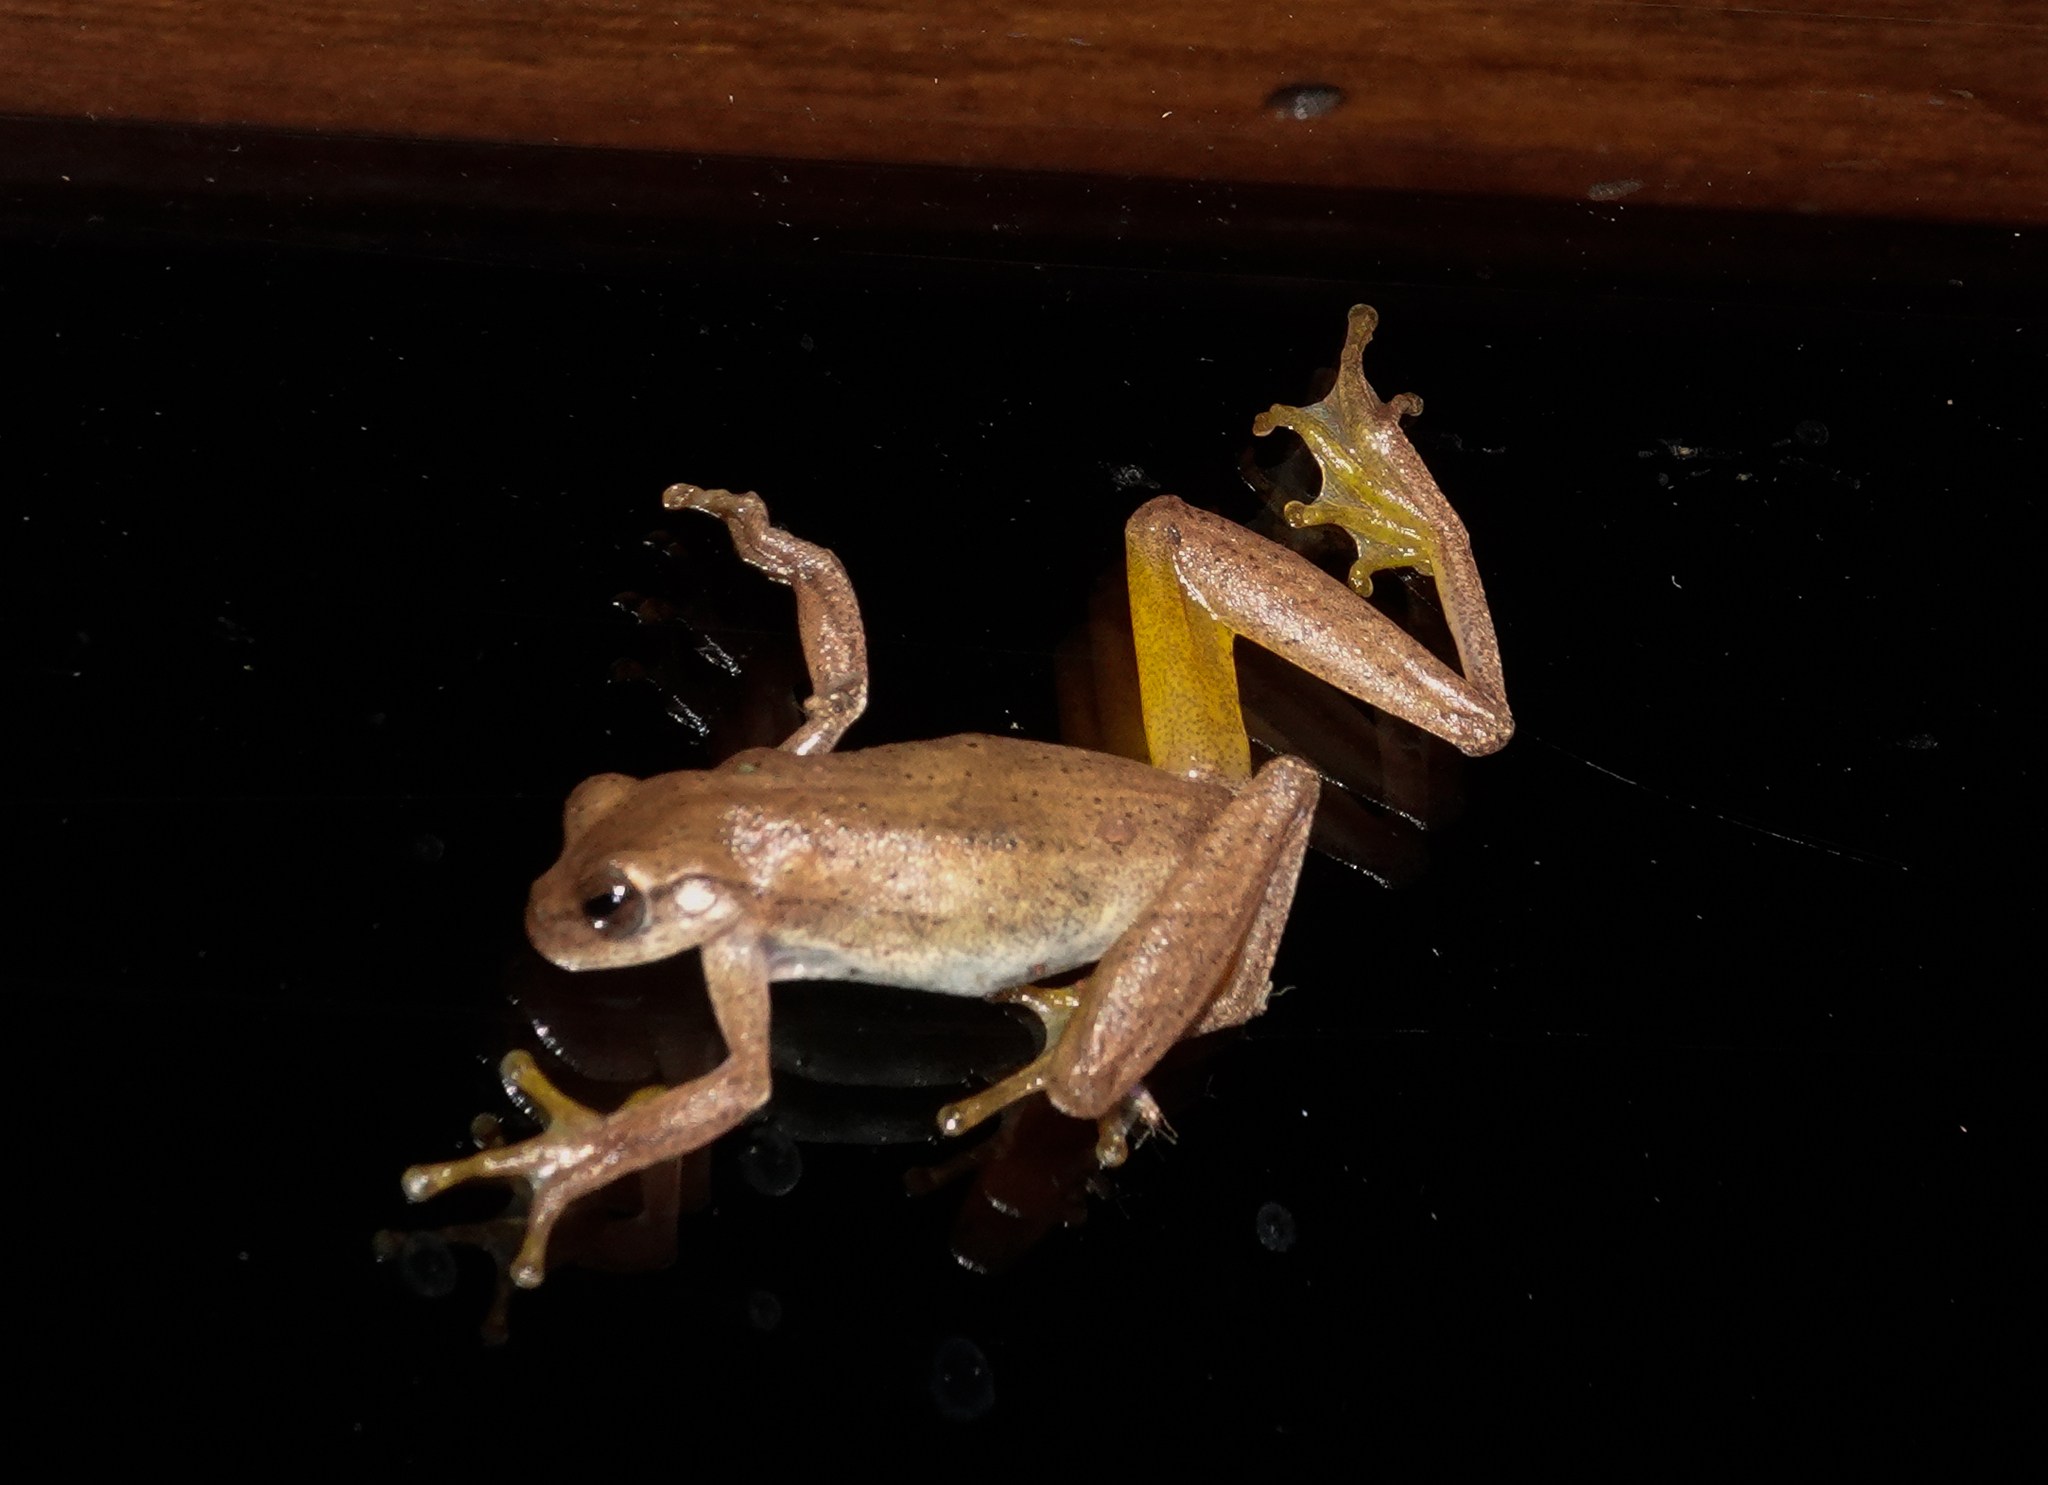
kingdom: Animalia
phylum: Chordata
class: Amphibia
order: Anura
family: Hylidae
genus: Dendropsophus
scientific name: Dendropsophus minutus
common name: Lesser treefrog
